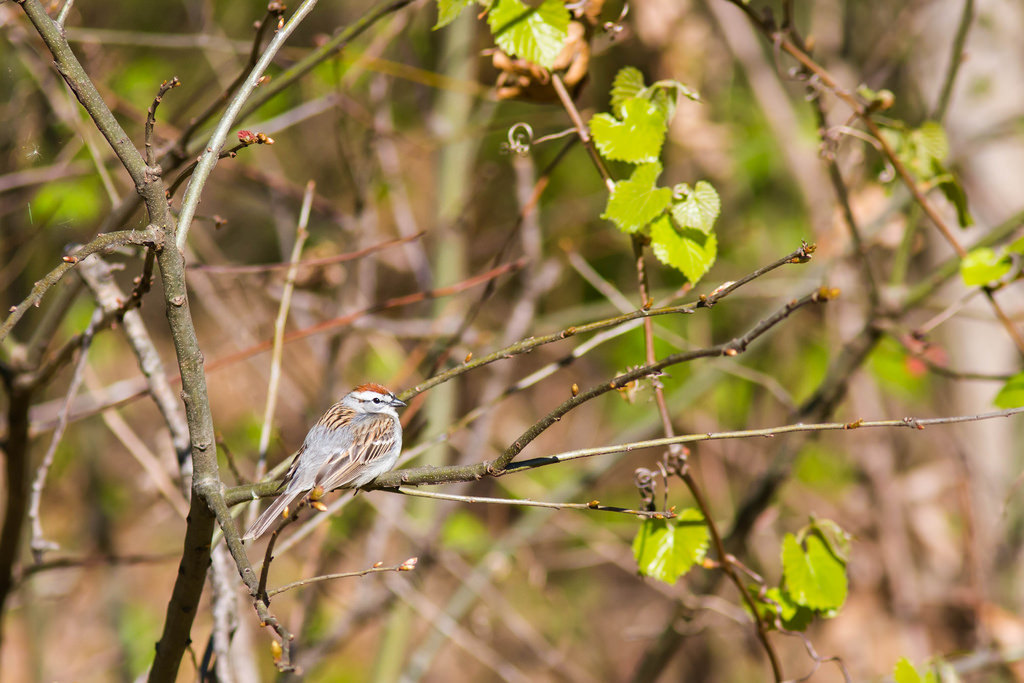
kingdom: Animalia
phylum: Chordata
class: Aves
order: Passeriformes
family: Passerellidae
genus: Spizella
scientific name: Spizella passerina
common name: Chipping sparrow
